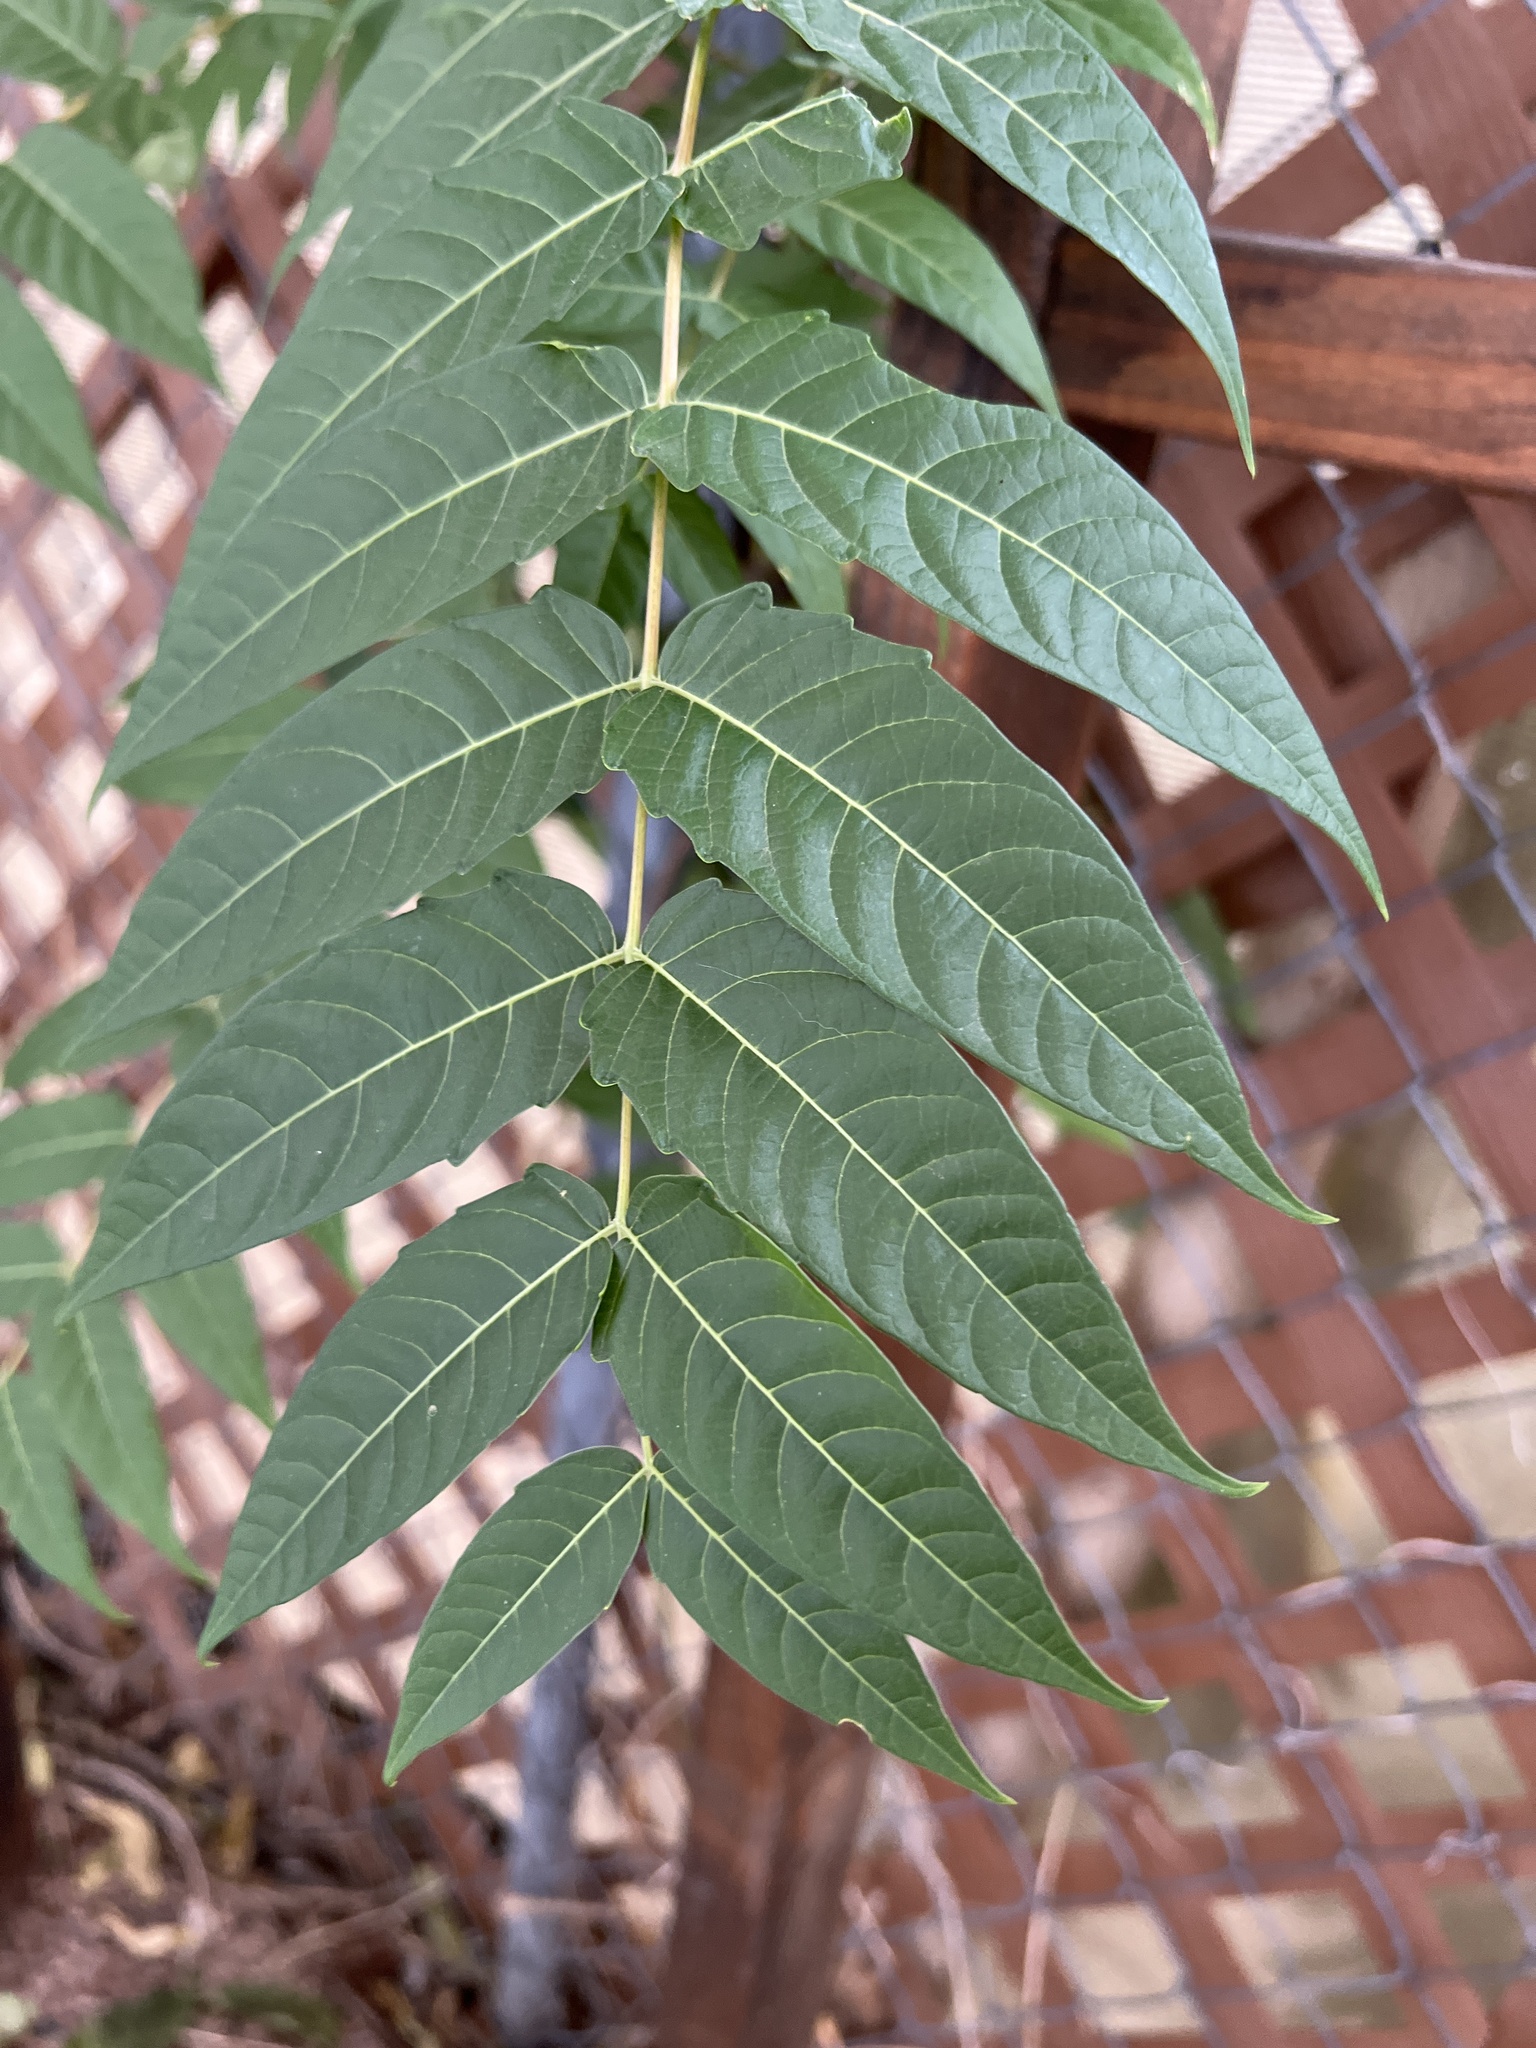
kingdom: Plantae
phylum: Tracheophyta
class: Magnoliopsida
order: Sapindales
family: Simaroubaceae
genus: Ailanthus
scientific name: Ailanthus altissima
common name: Tree-of-heaven
